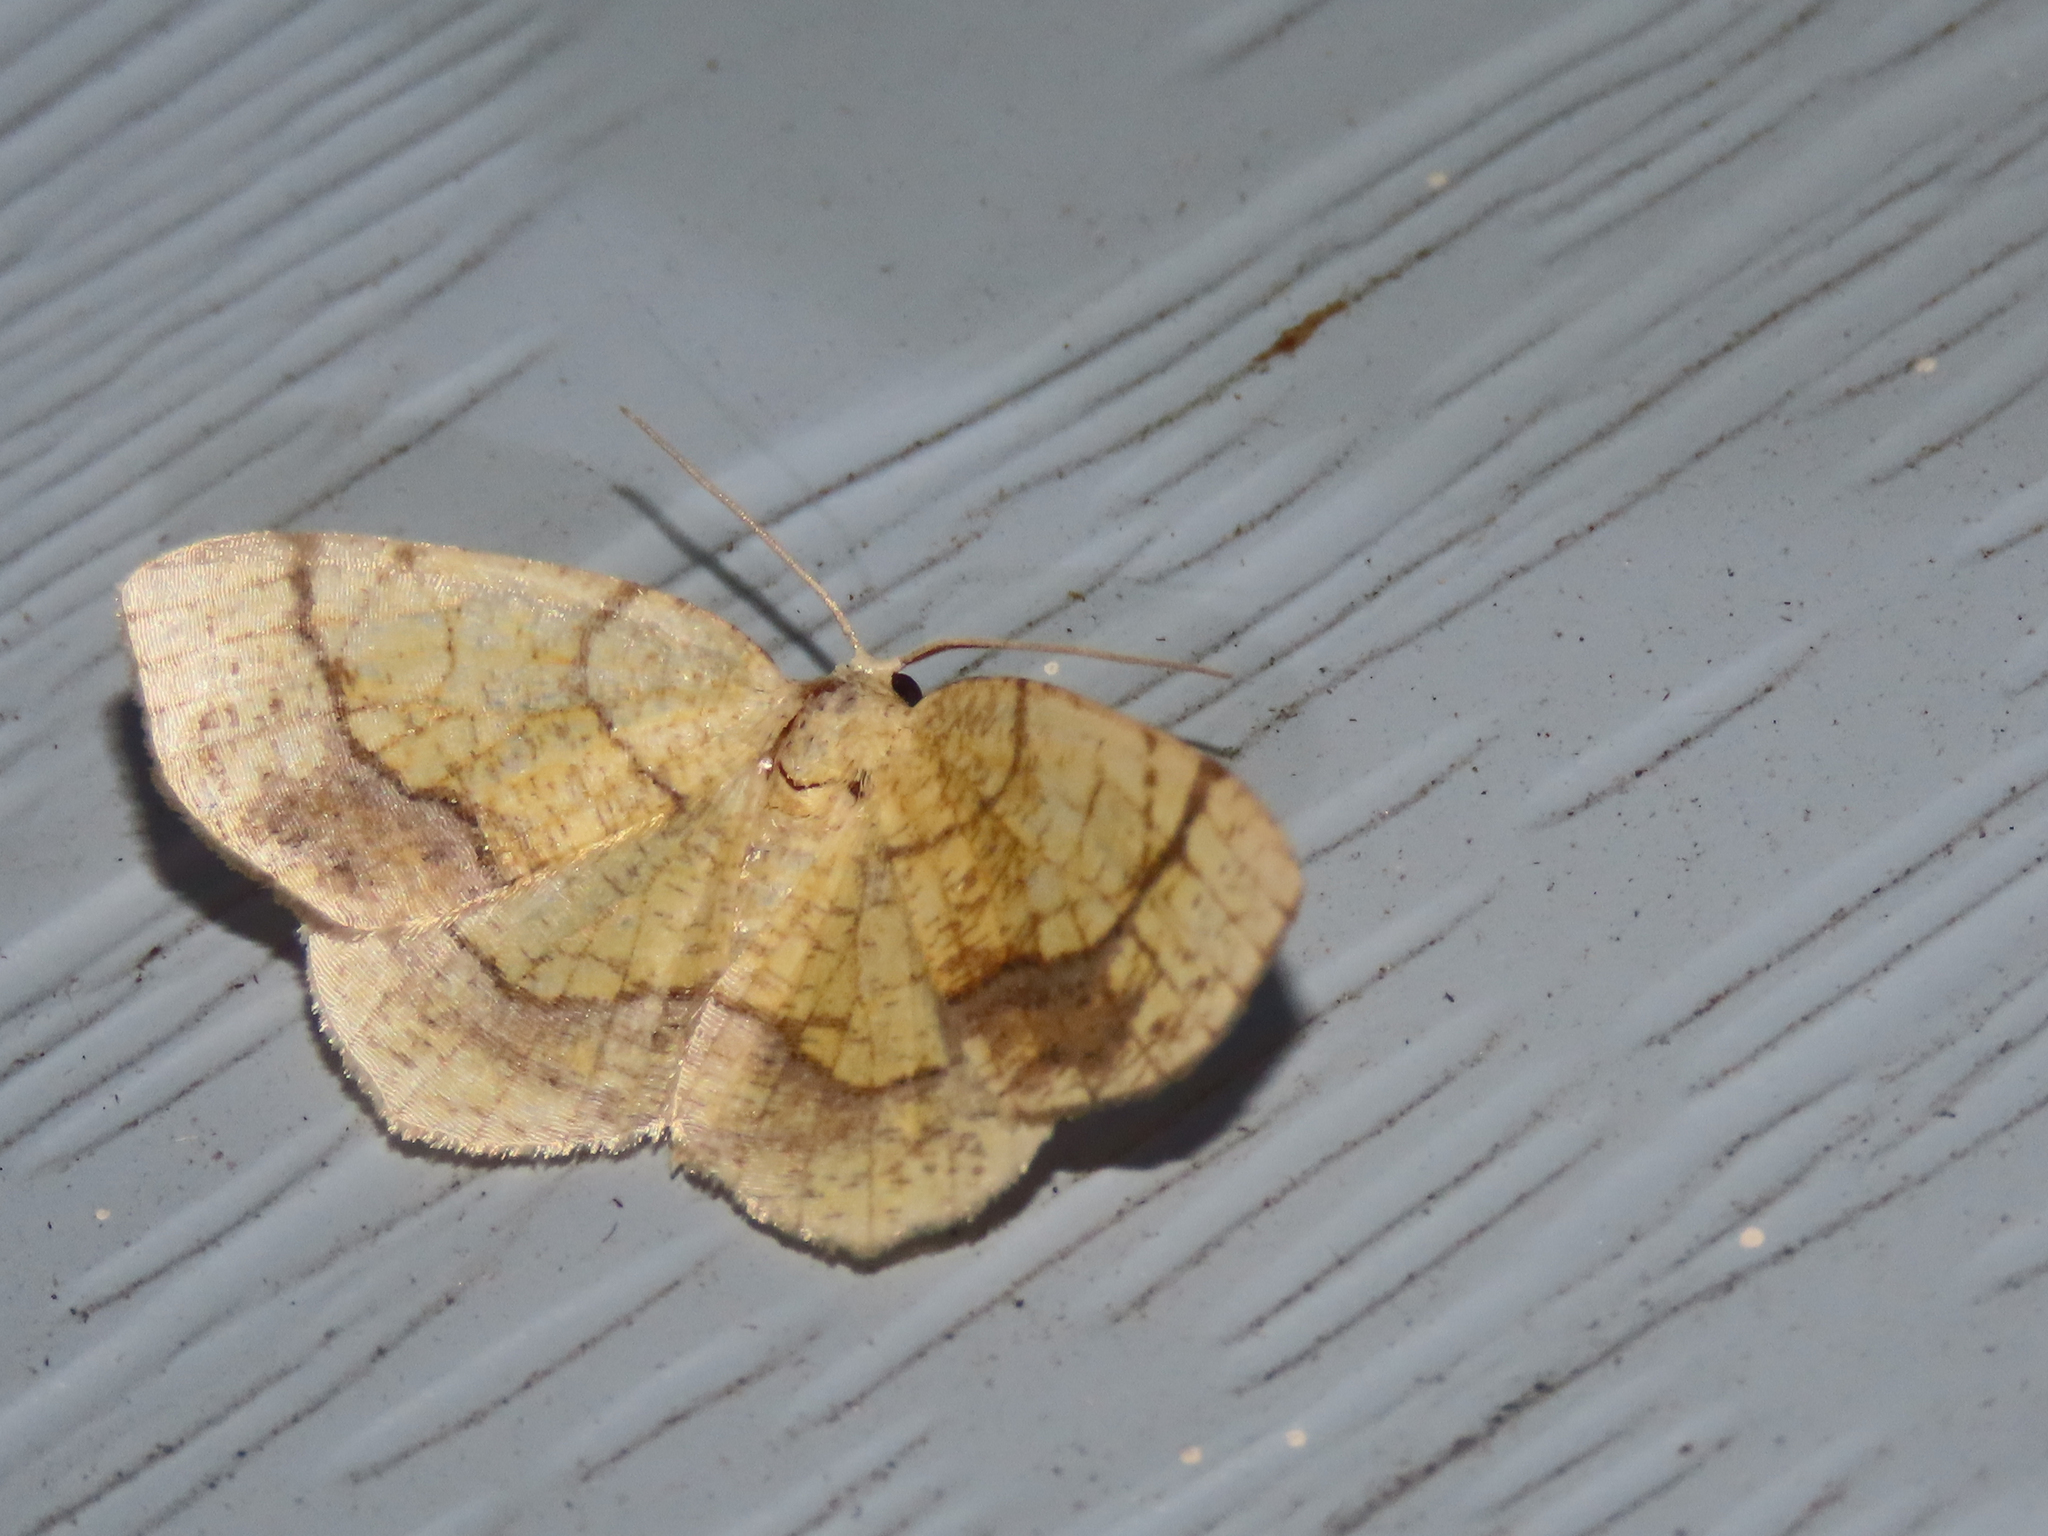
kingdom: Animalia
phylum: Arthropoda
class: Insecta
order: Lepidoptera
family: Geometridae
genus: Nematocampa
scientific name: Nematocampa resistaria
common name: Horned spanworm moth
